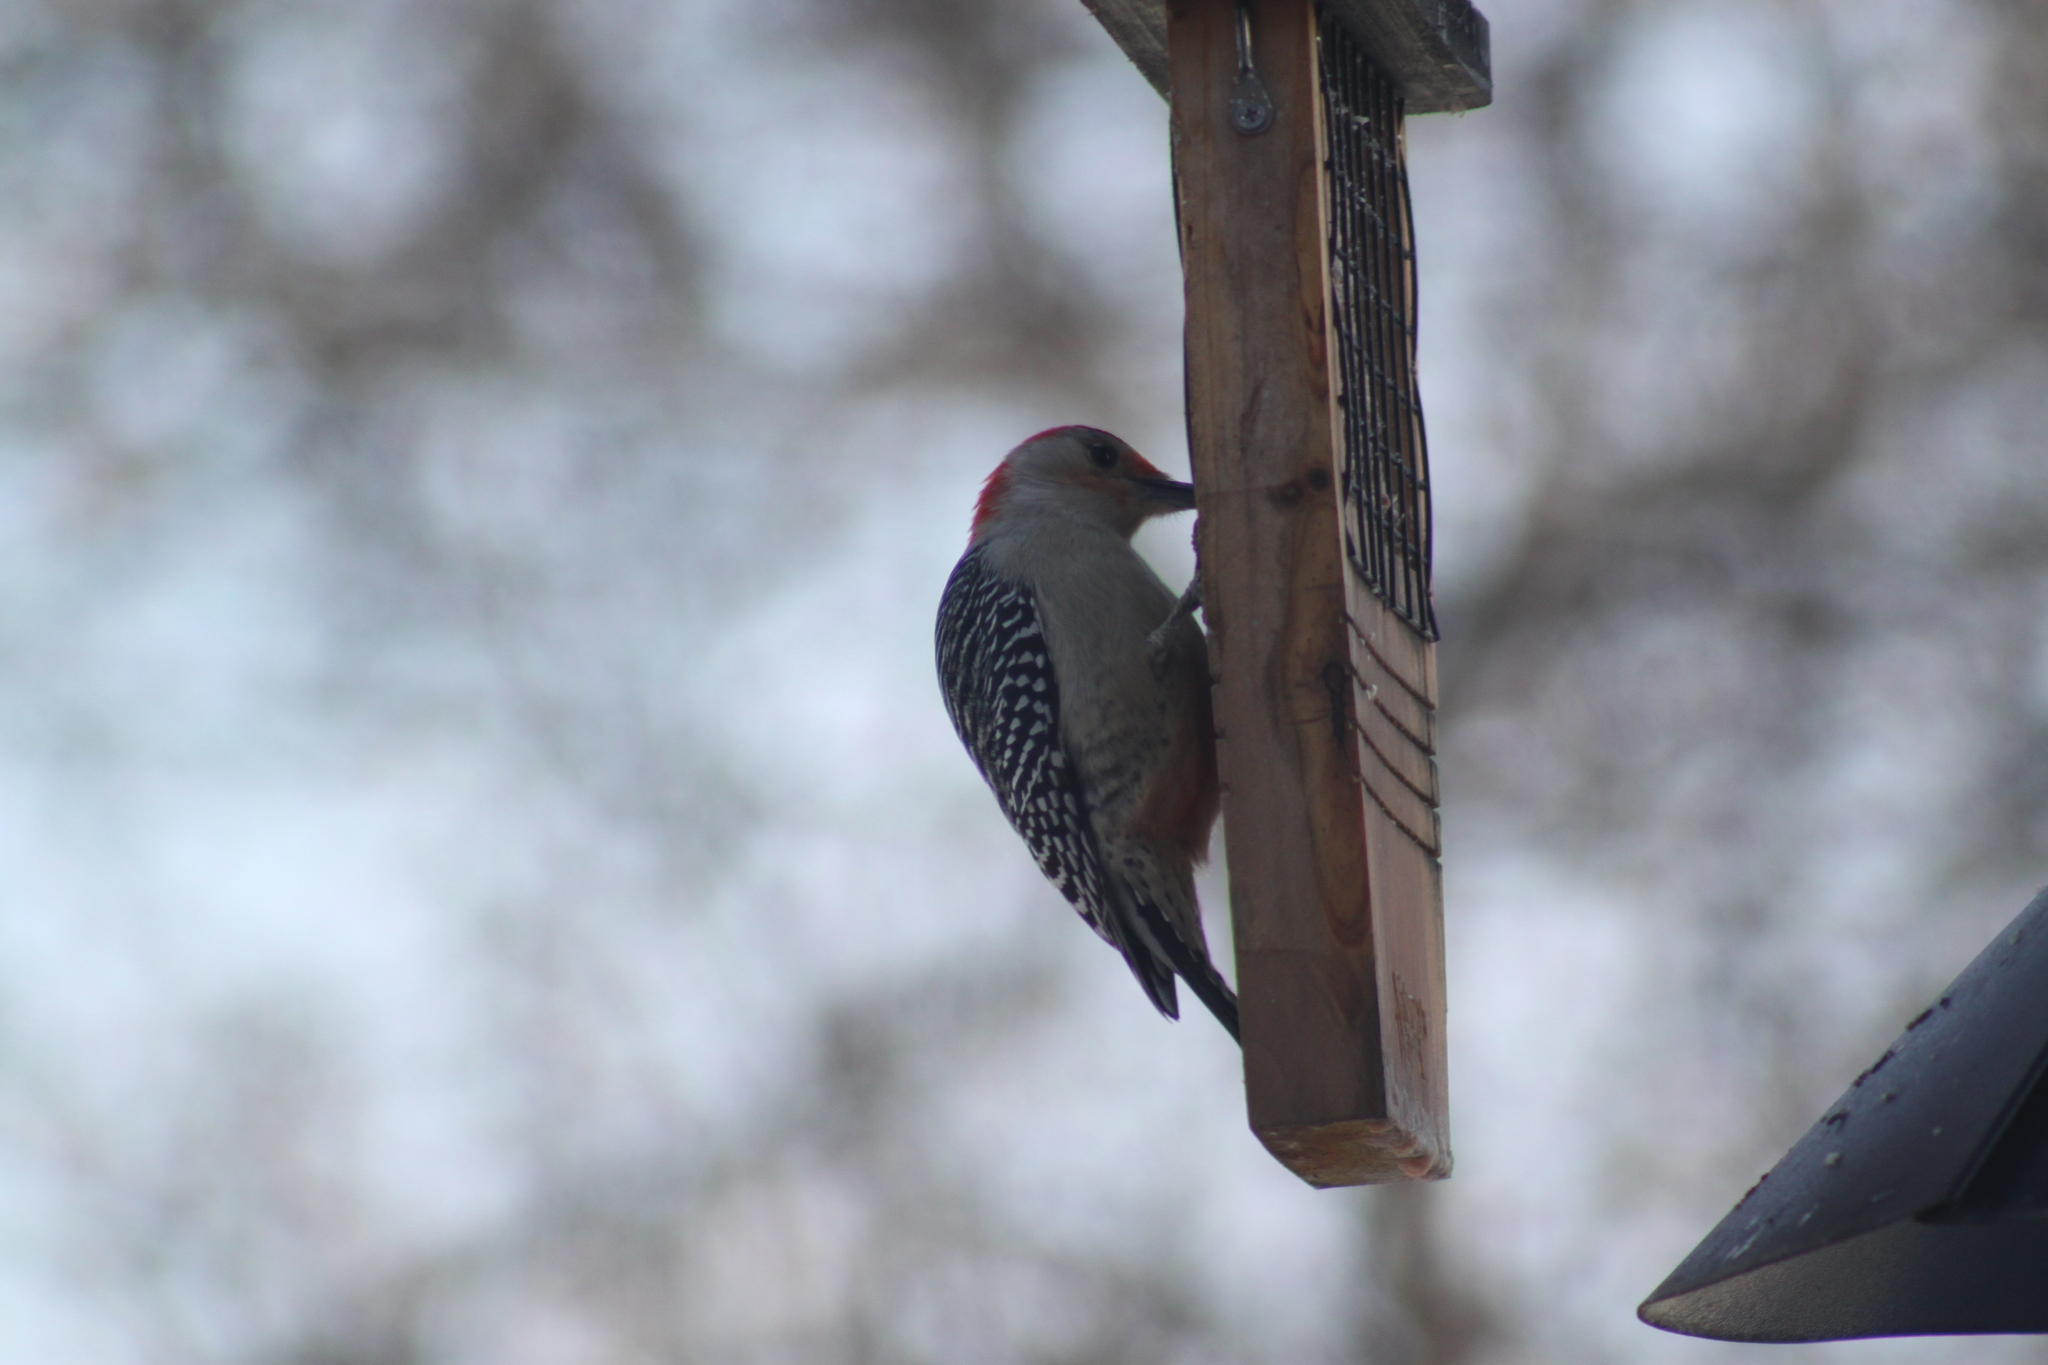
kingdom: Animalia
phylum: Chordata
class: Aves
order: Piciformes
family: Picidae
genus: Melanerpes
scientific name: Melanerpes carolinus
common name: Red-bellied woodpecker
